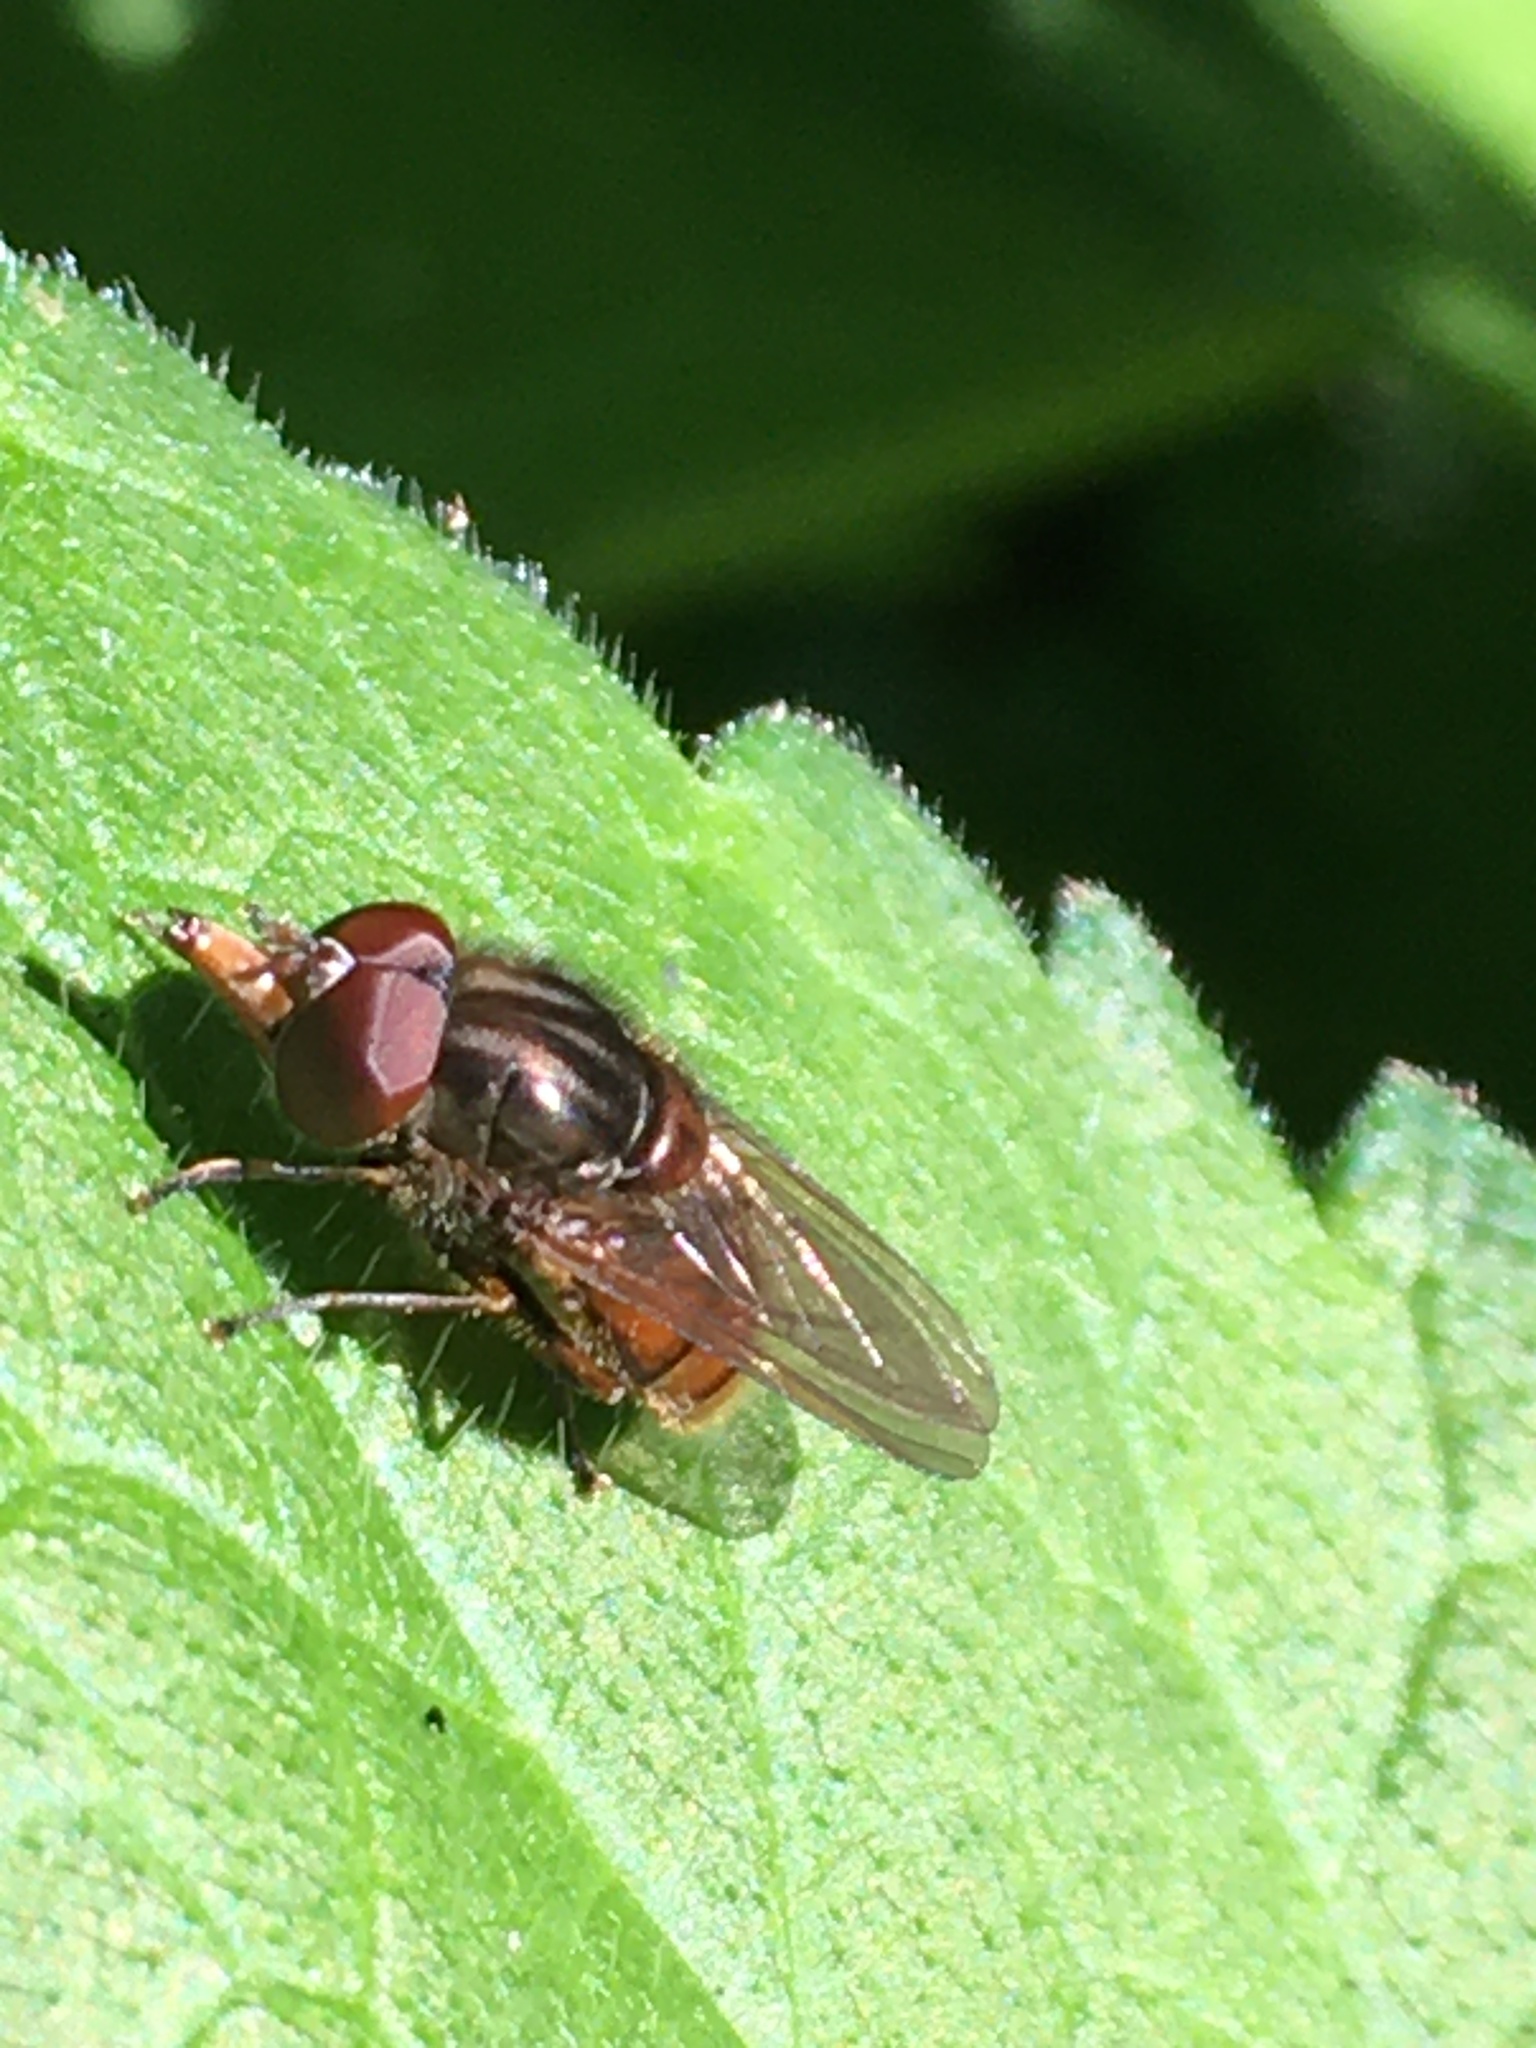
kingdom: Animalia
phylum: Arthropoda
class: Insecta
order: Diptera
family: Syrphidae
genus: Rhingia
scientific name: Rhingia campestris
